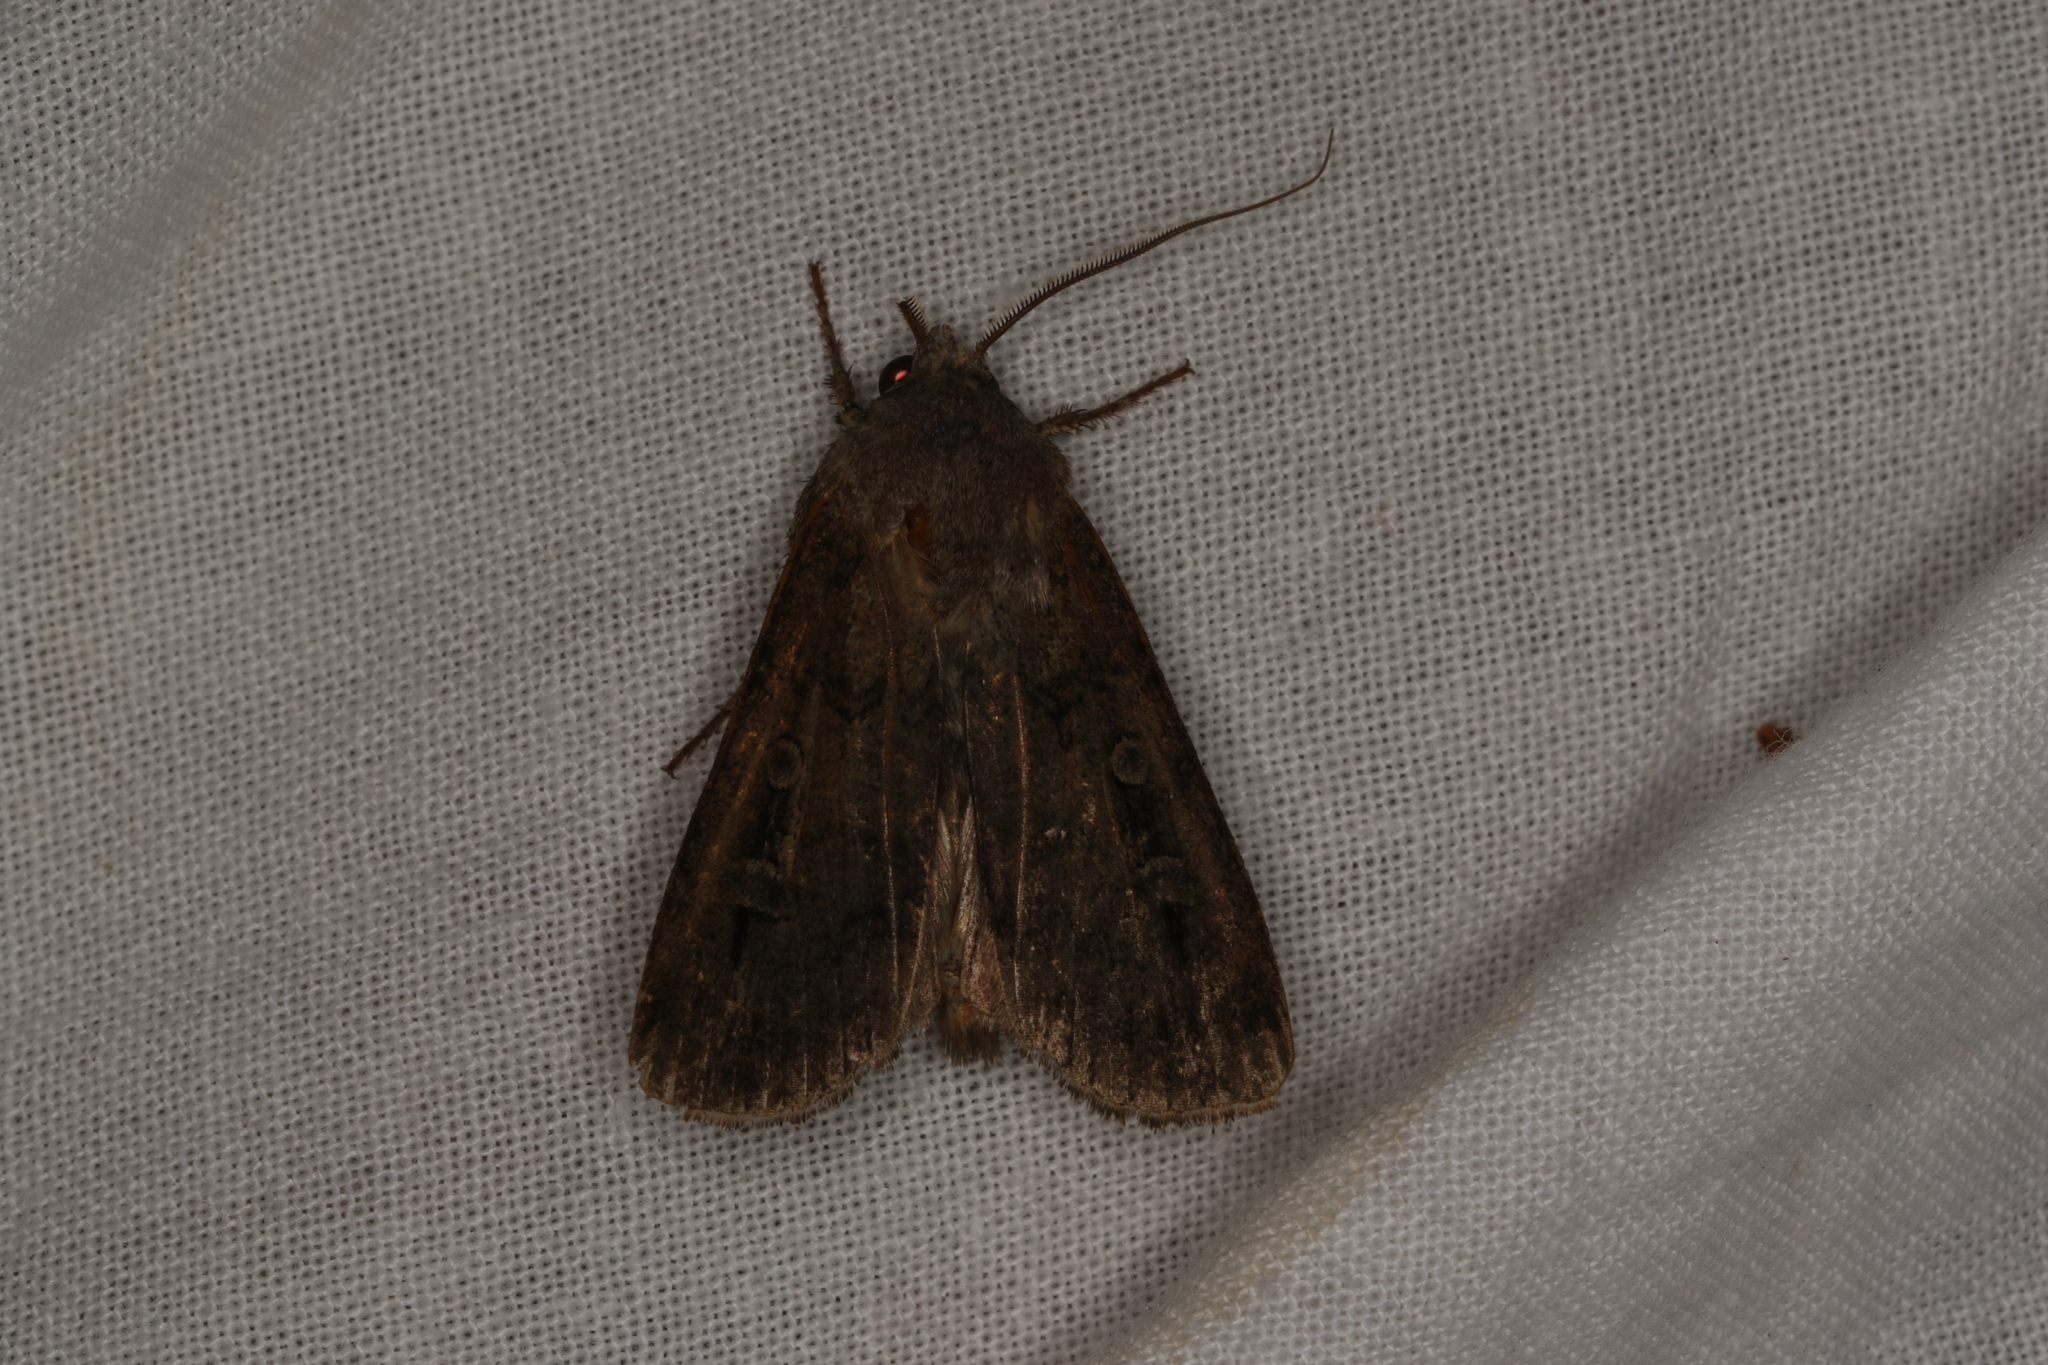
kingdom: Animalia
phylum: Arthropoda
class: Insecta
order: Lepidoptera
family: Noctuidae
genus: Agrotis
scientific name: Agrotis infusa
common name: Bogong moth
